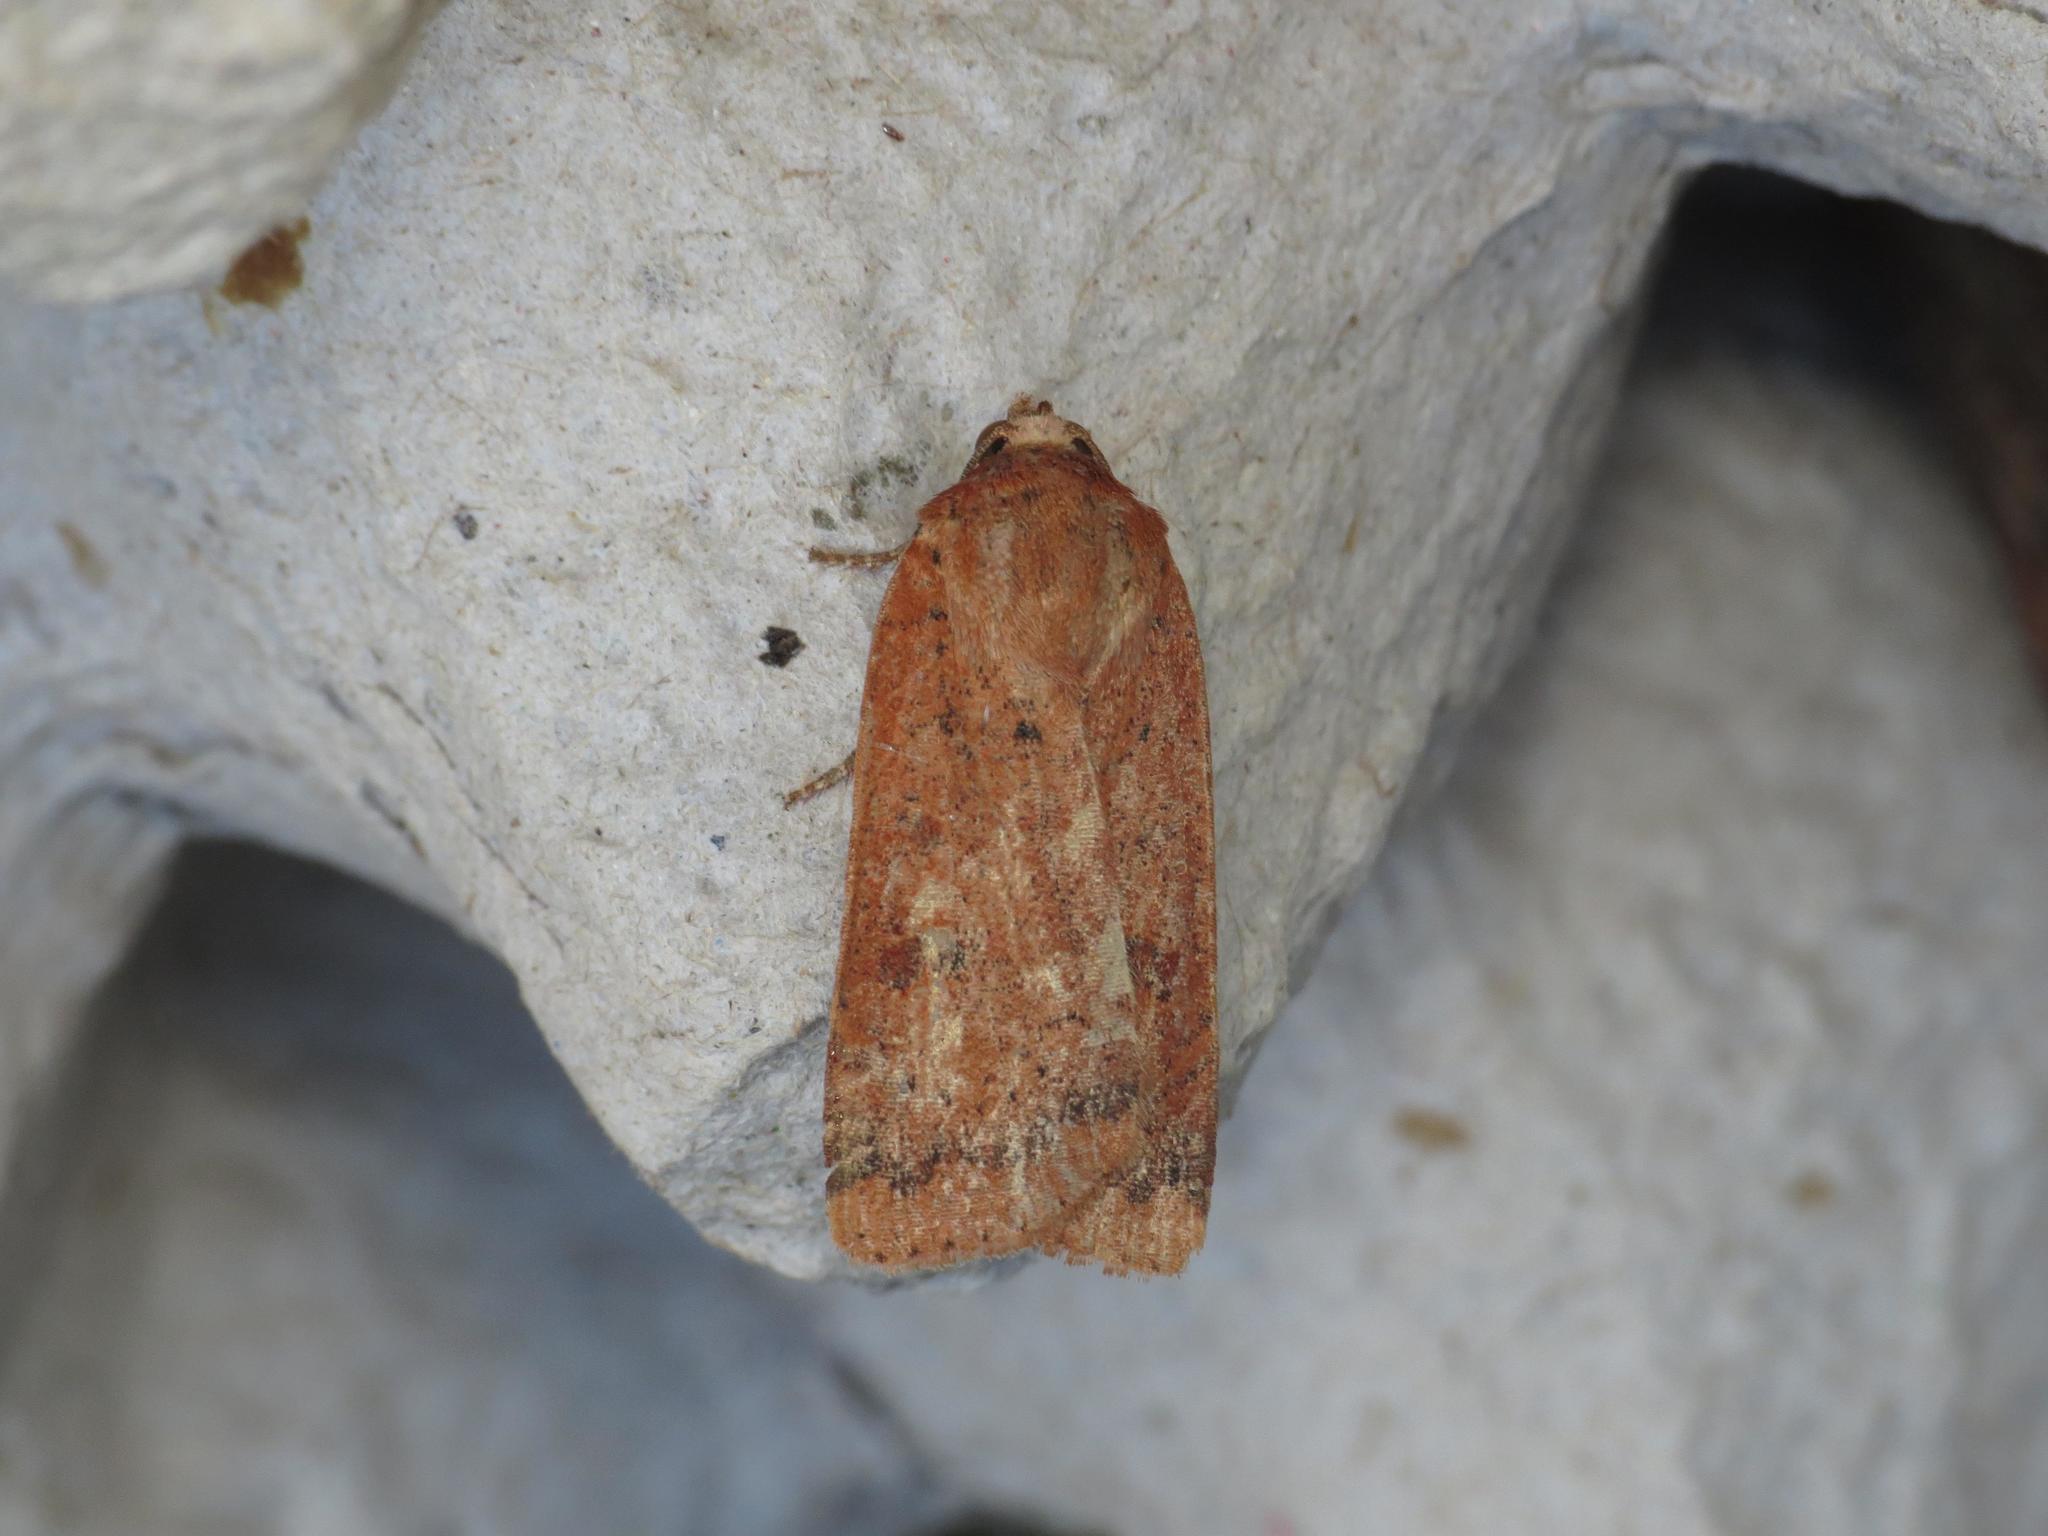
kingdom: Animalia
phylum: Arthropoda
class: Insecta
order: Lepidoptera
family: Noctuidae
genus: Noctua
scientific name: Noctua interjecta
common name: Least yellow underwing
